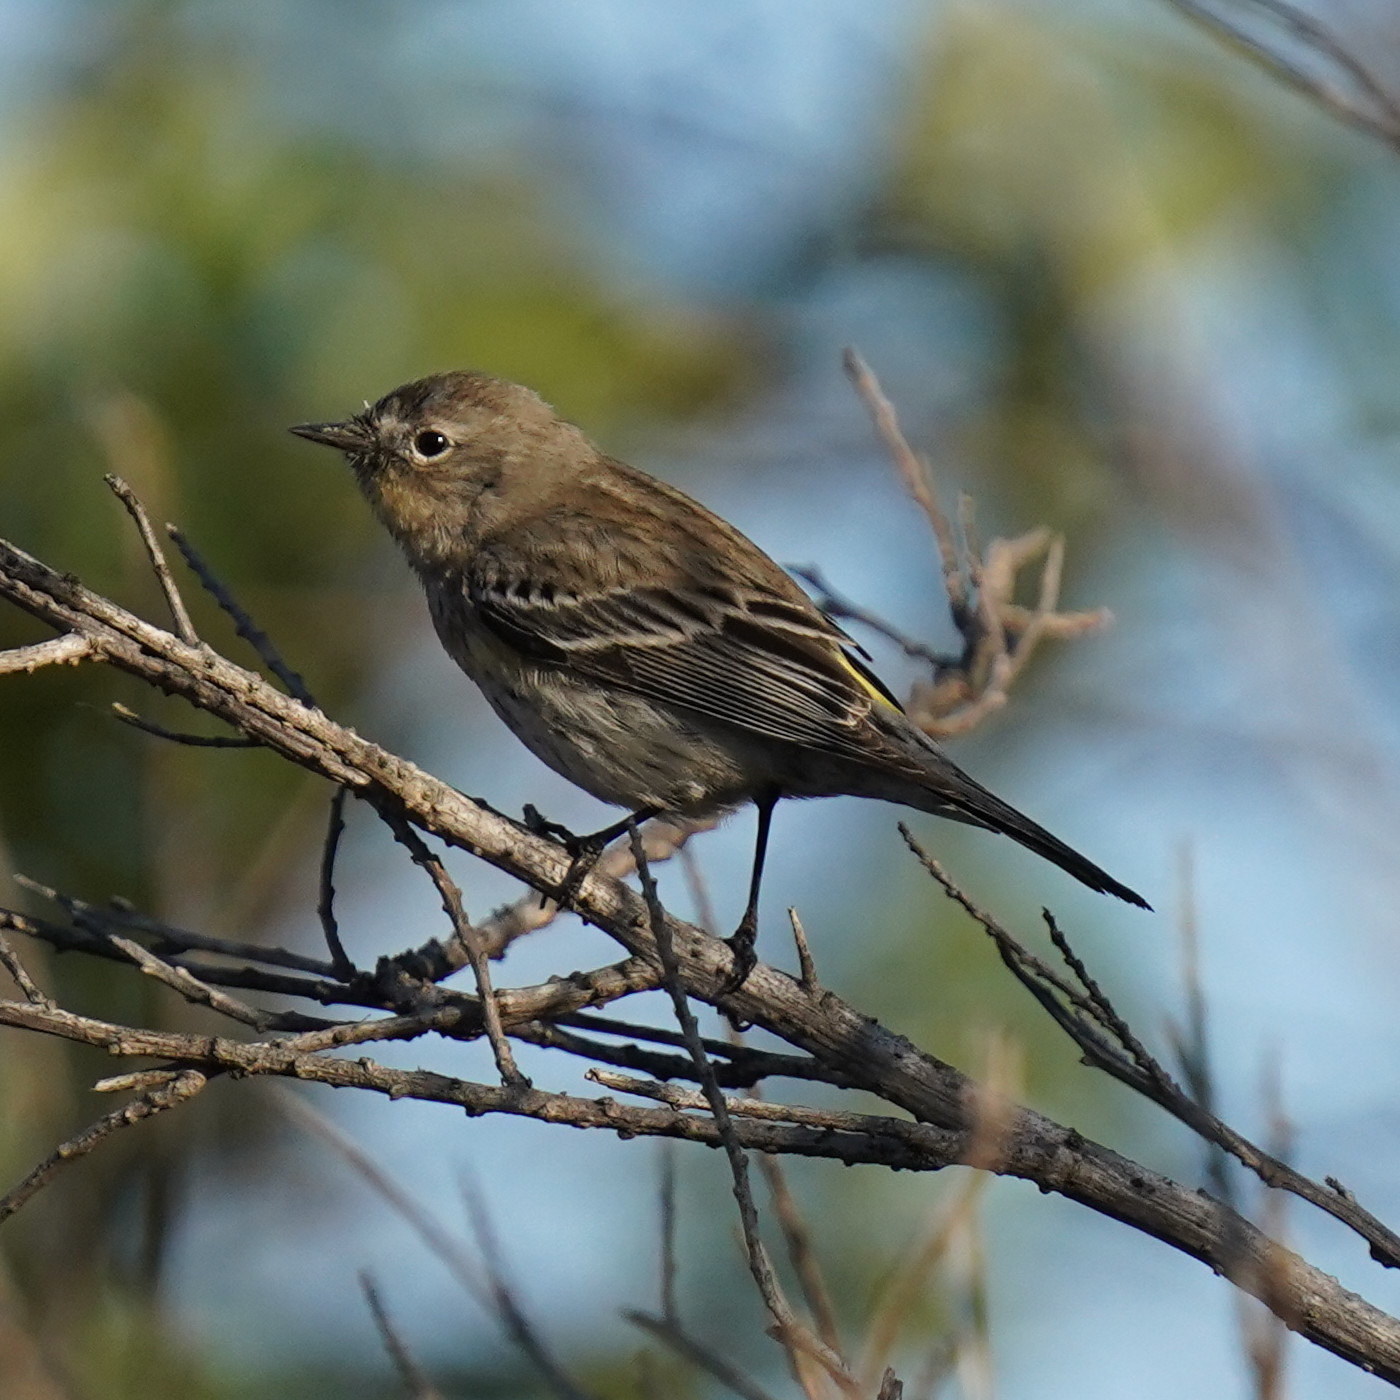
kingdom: Animalia
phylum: Chordata
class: Aves
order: Passeriformes
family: Parulidae
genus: Setophaga
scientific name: Setophaga coronata
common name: Myrtle warbler
